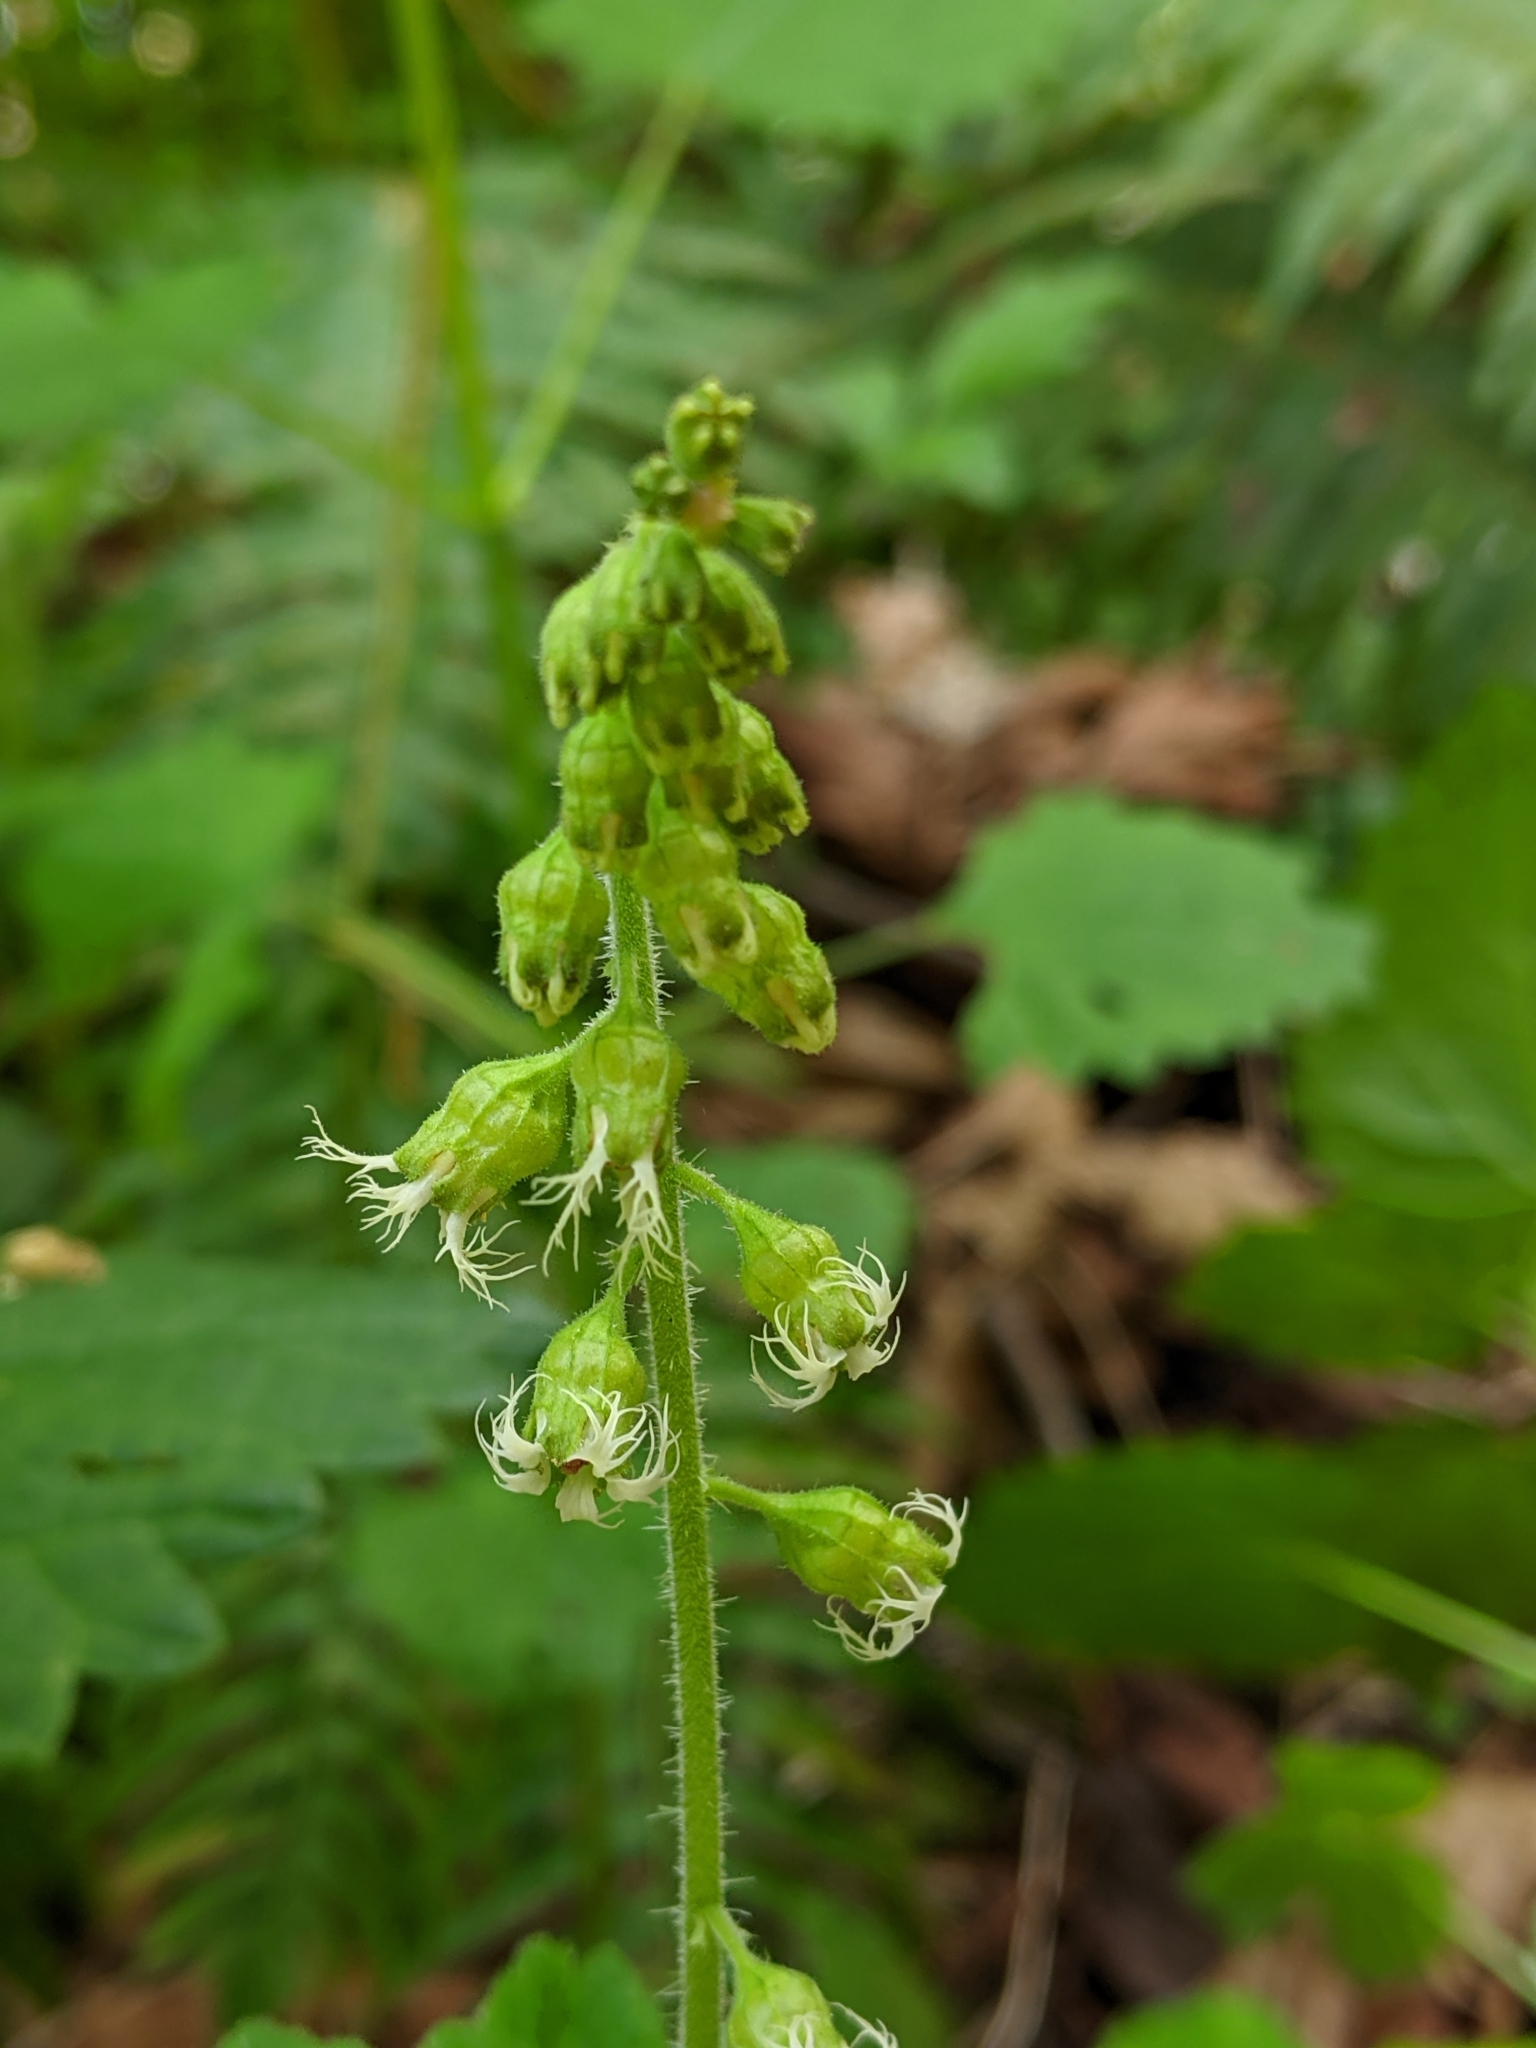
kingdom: Plantae
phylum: Tracheophyta
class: Magnoliopsida
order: Saxifragales
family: Saxifragaceae
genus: Tellima
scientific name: Tellima grandiflora
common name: Fringecups
